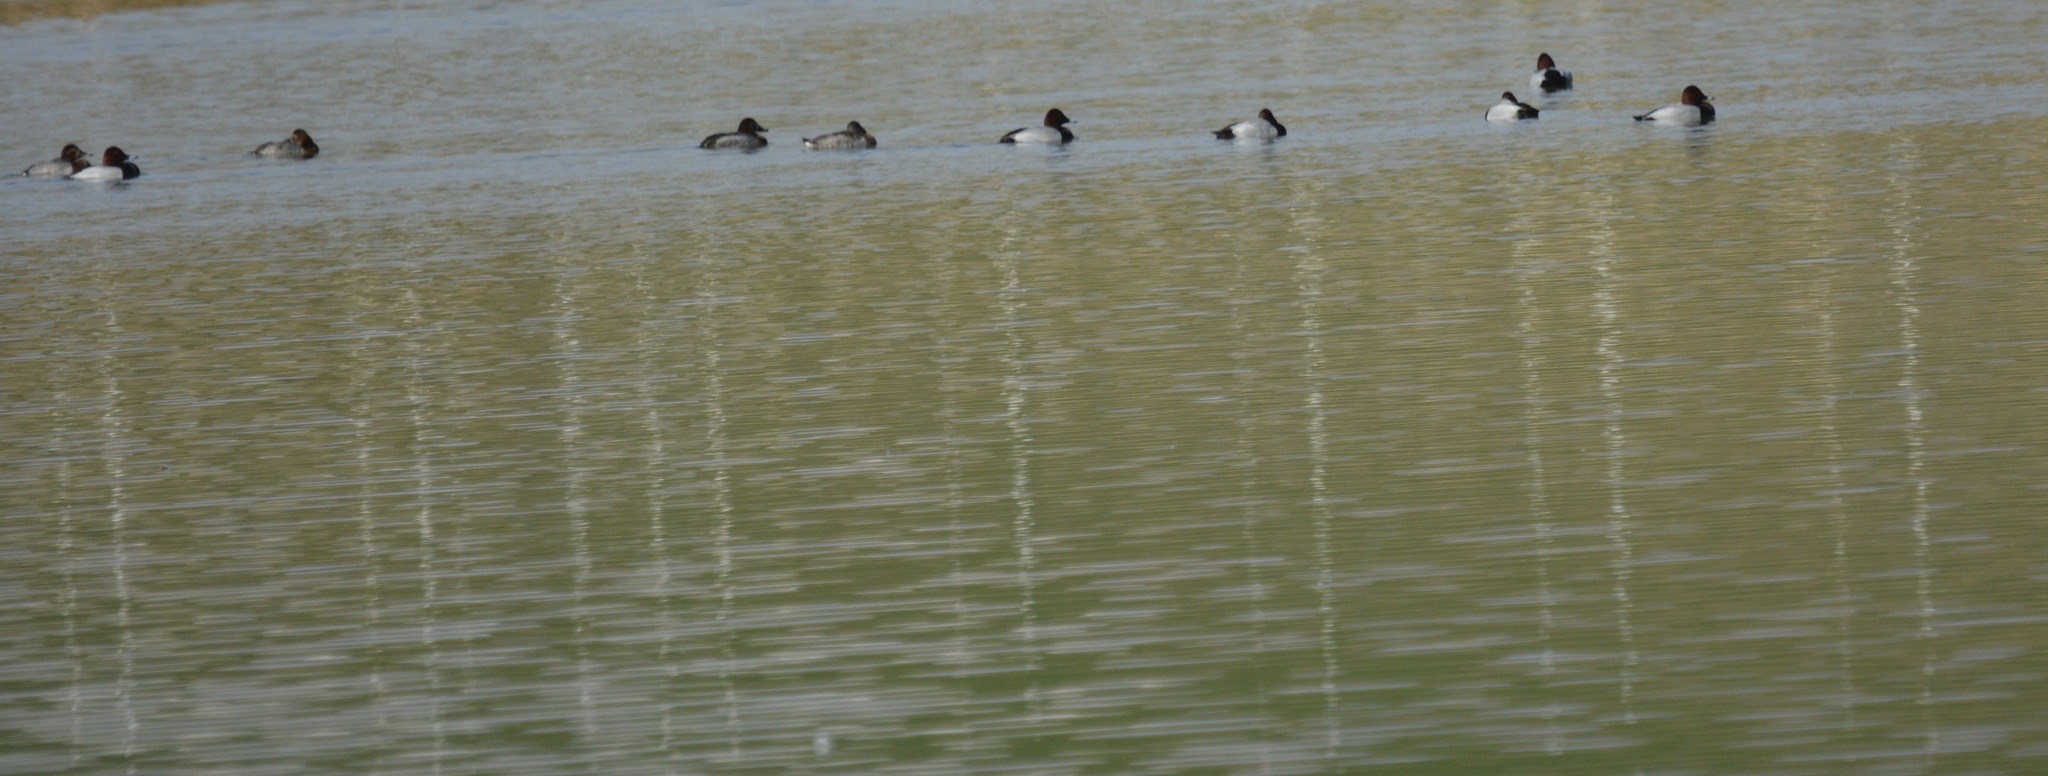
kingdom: Animalia
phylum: Chordata
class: Aves
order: Anseriformes
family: Anatidae
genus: Aythya
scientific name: Aythya ferina
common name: Common pochard
